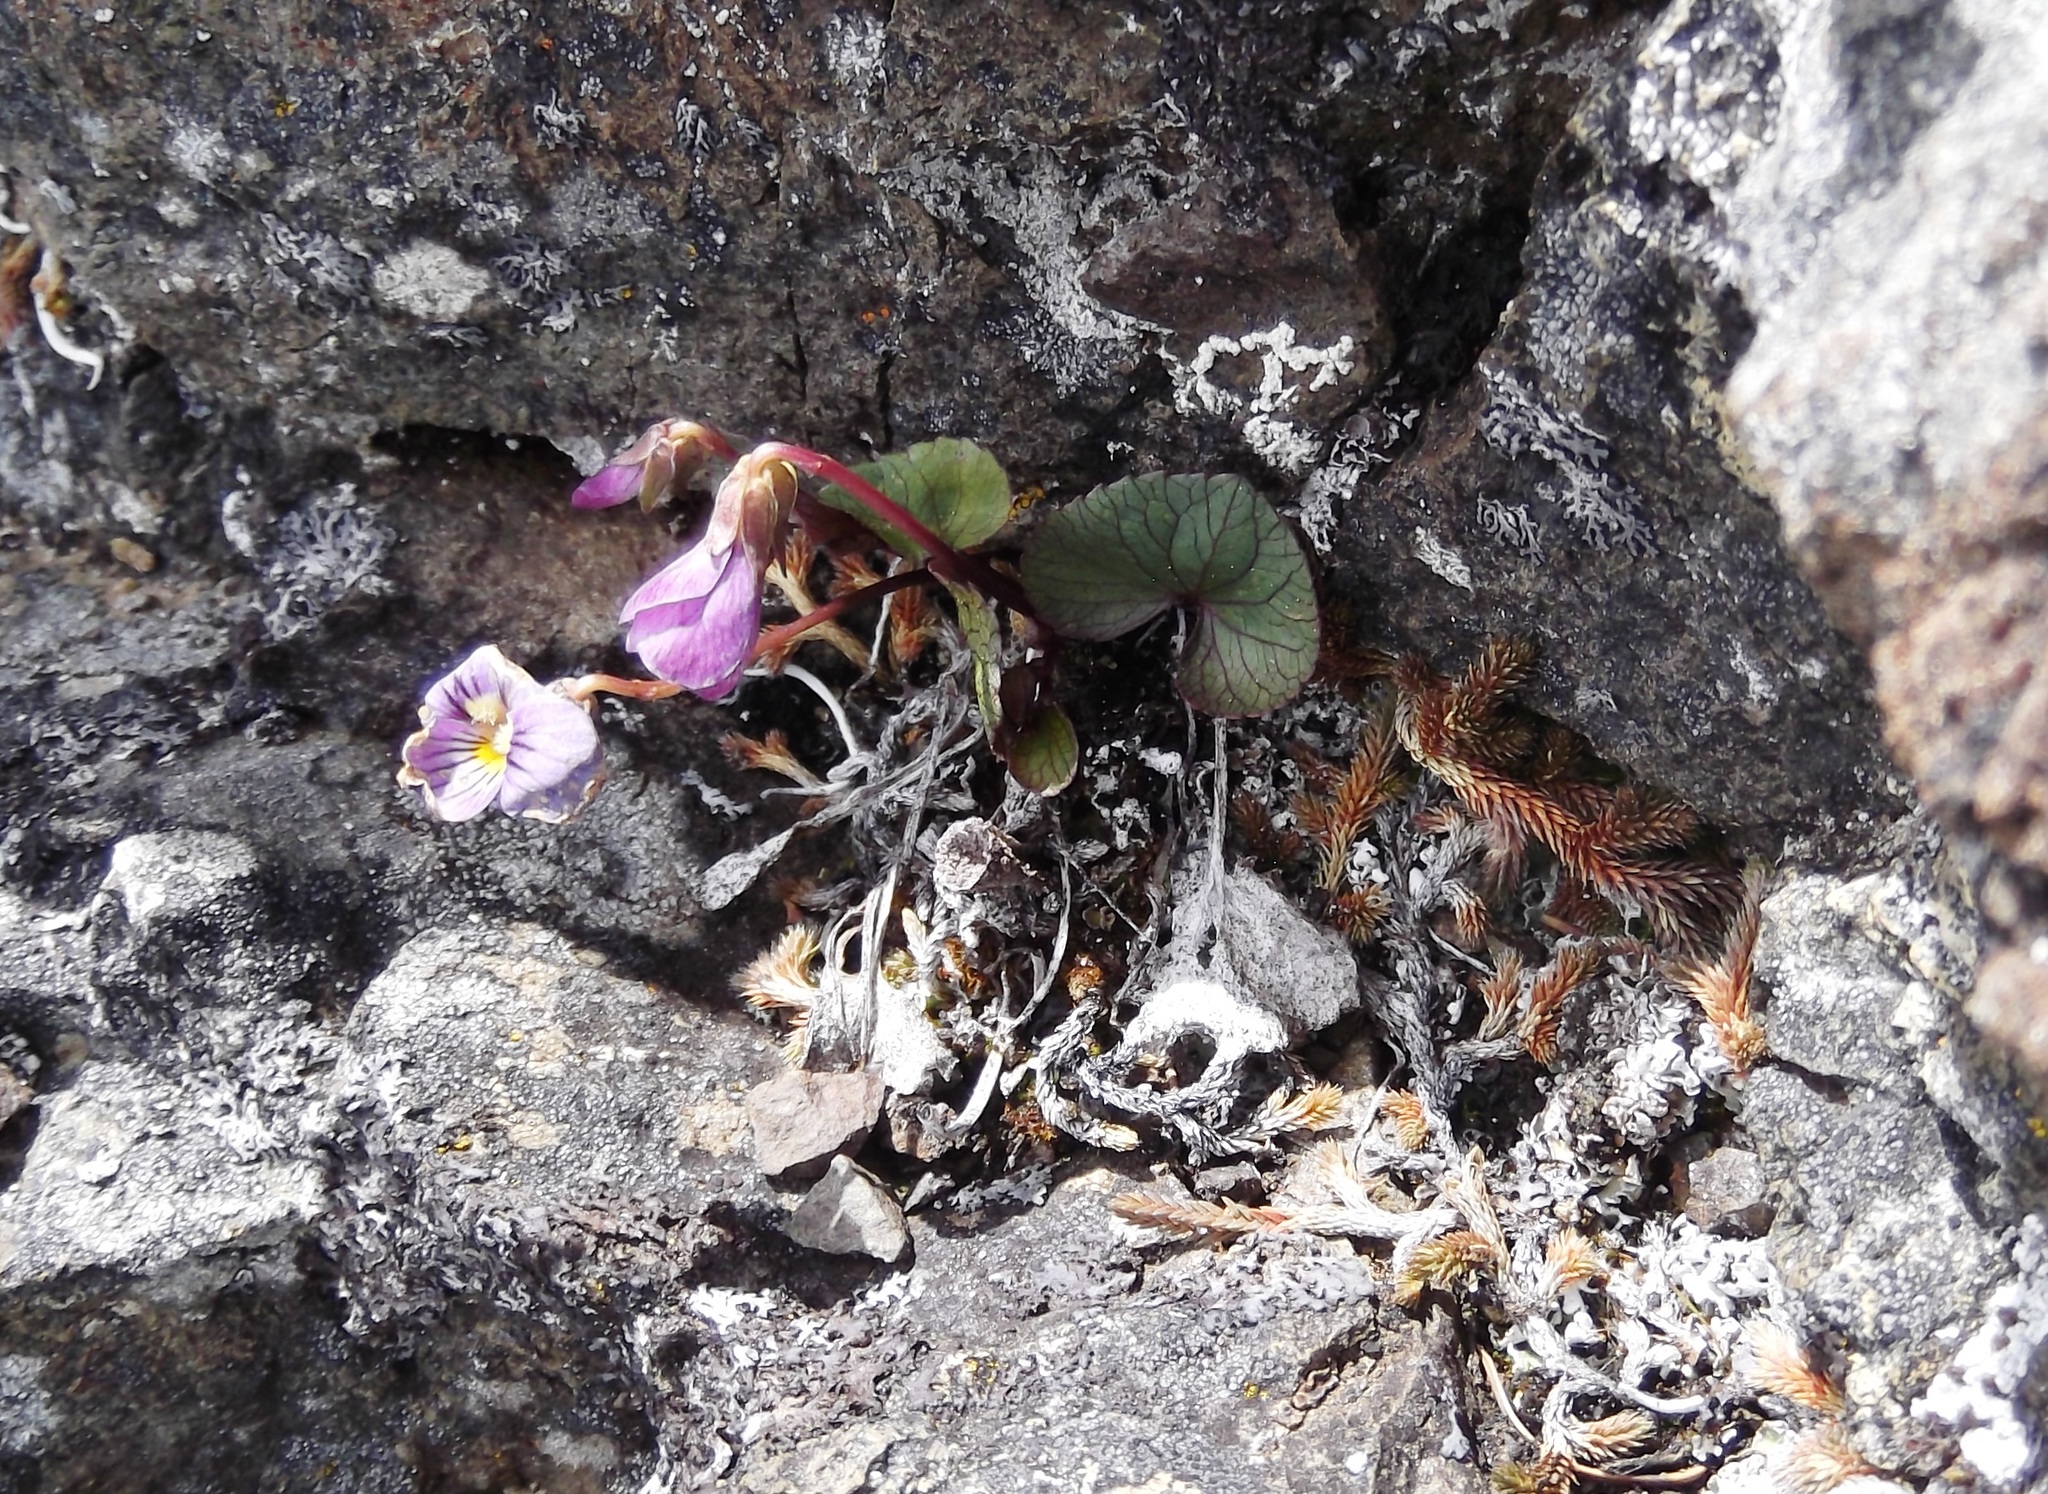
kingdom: Plantae
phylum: Tracheophyta
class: Magnoliopsida
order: Malpighiales
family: Violaceae
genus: Viola
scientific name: Viola flettii
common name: Rock violet
